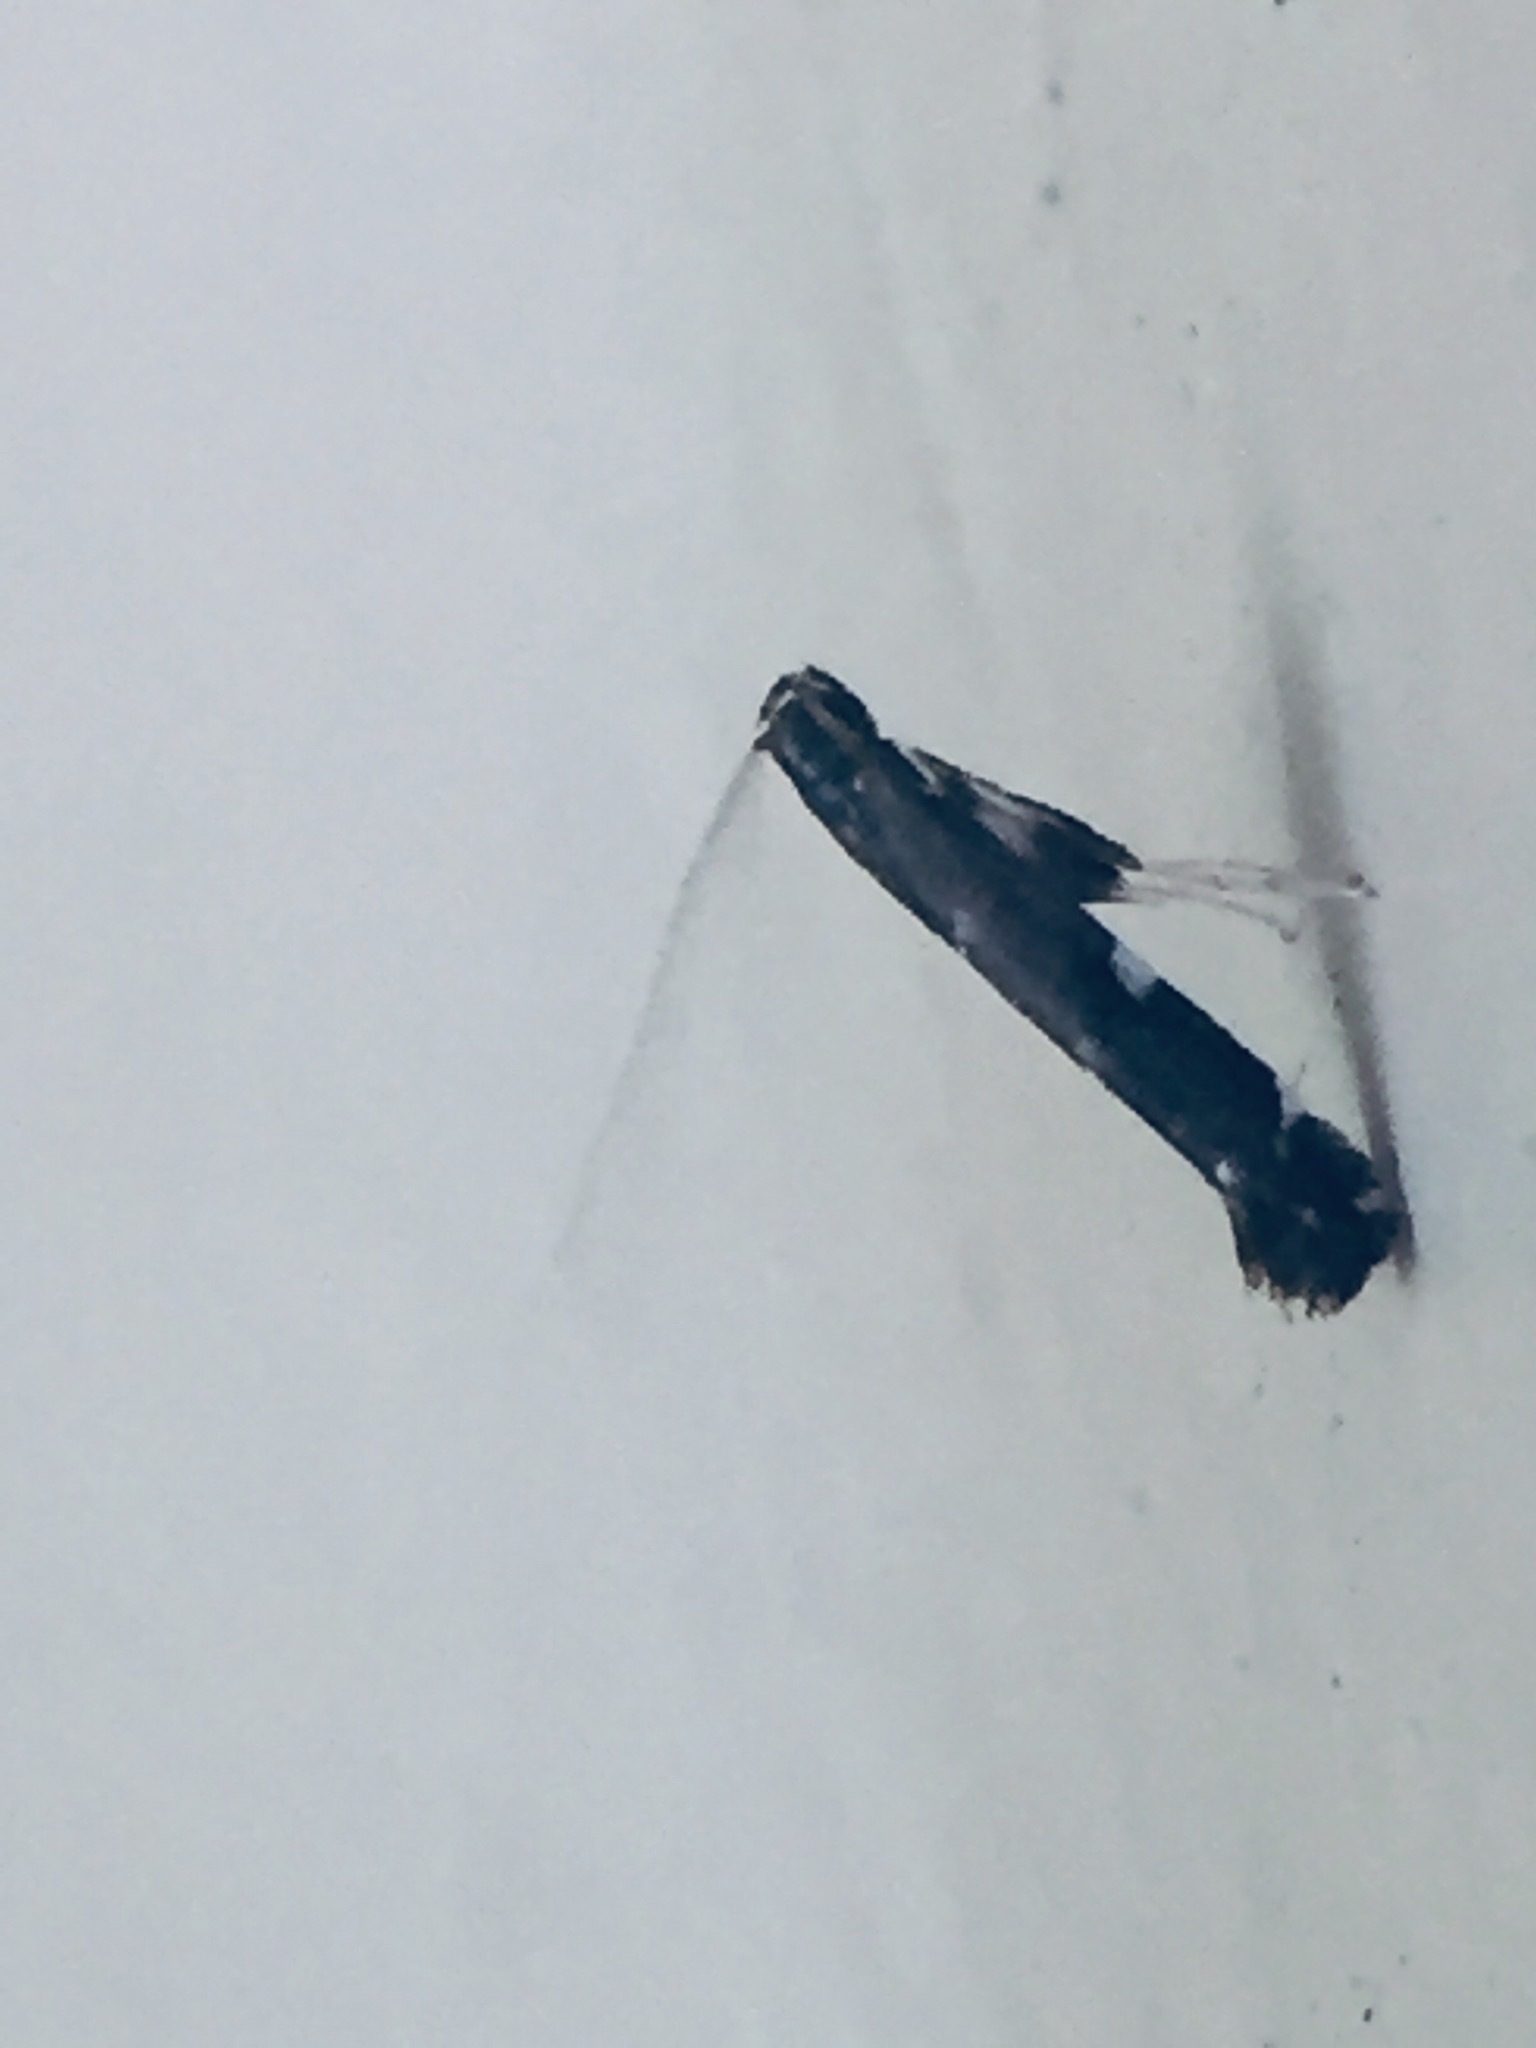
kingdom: Animalia
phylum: Arthropoda
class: Insecta
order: Lepidoptera
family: Gracillariidae
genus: Corythoxestis
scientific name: Corythoxestis zorionella
